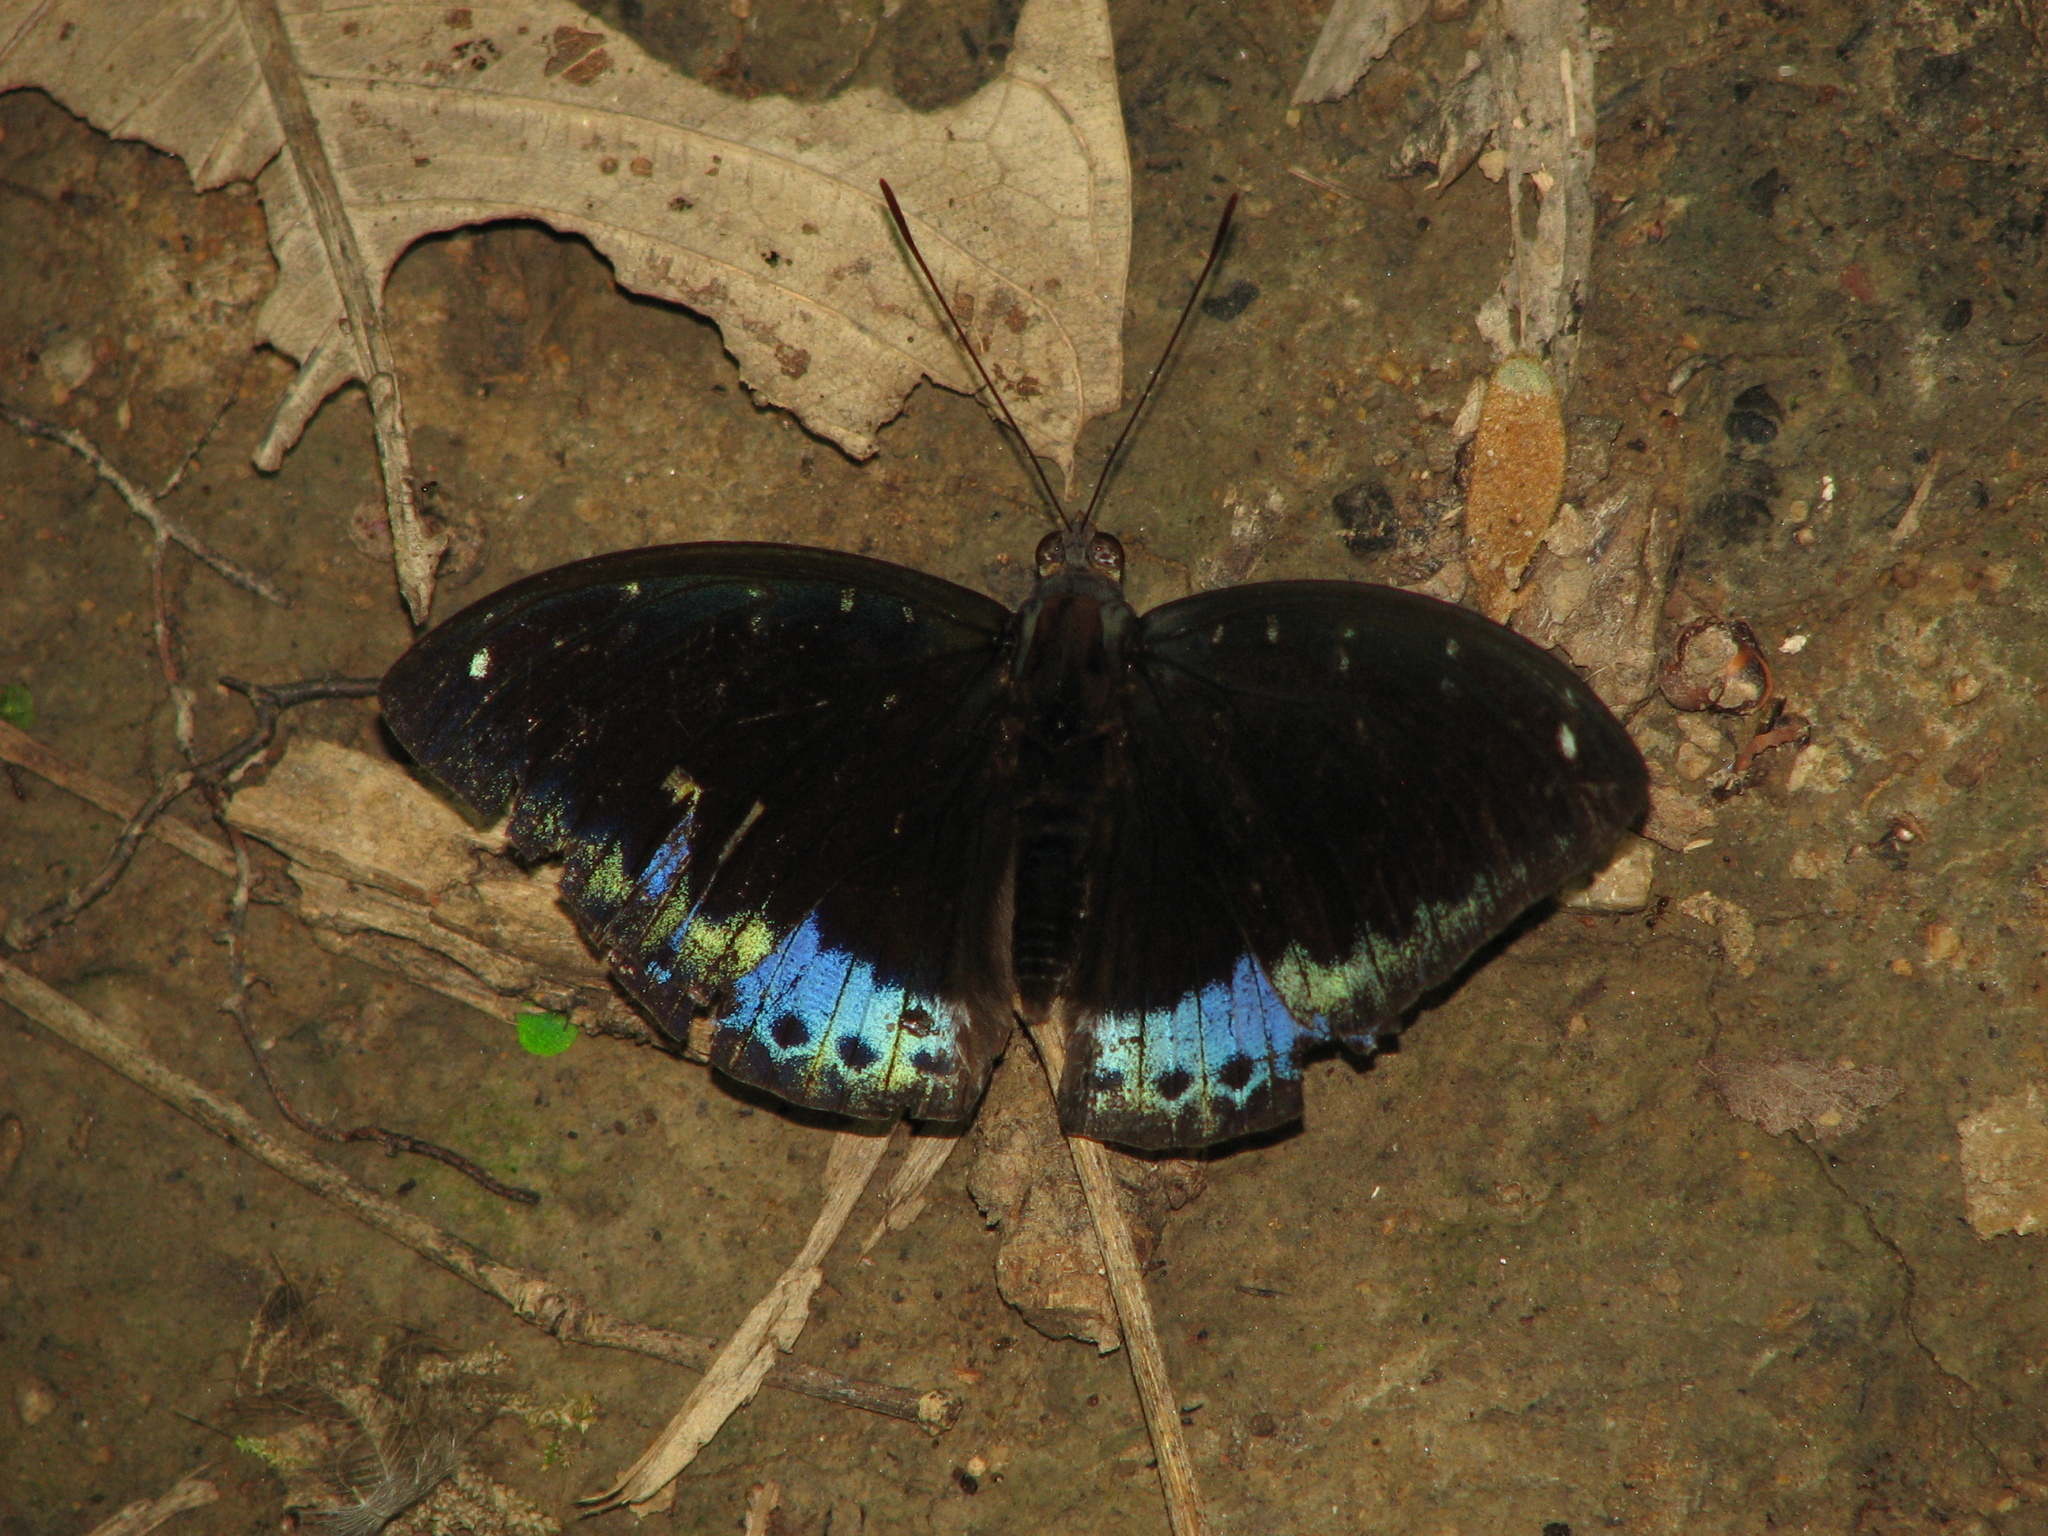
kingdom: Animalia
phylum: Arthropoda
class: Insecta
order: Lepidoptera
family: Nymphalidae
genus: Lexias
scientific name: Lexias dirtea
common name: Black-tipped archduke
